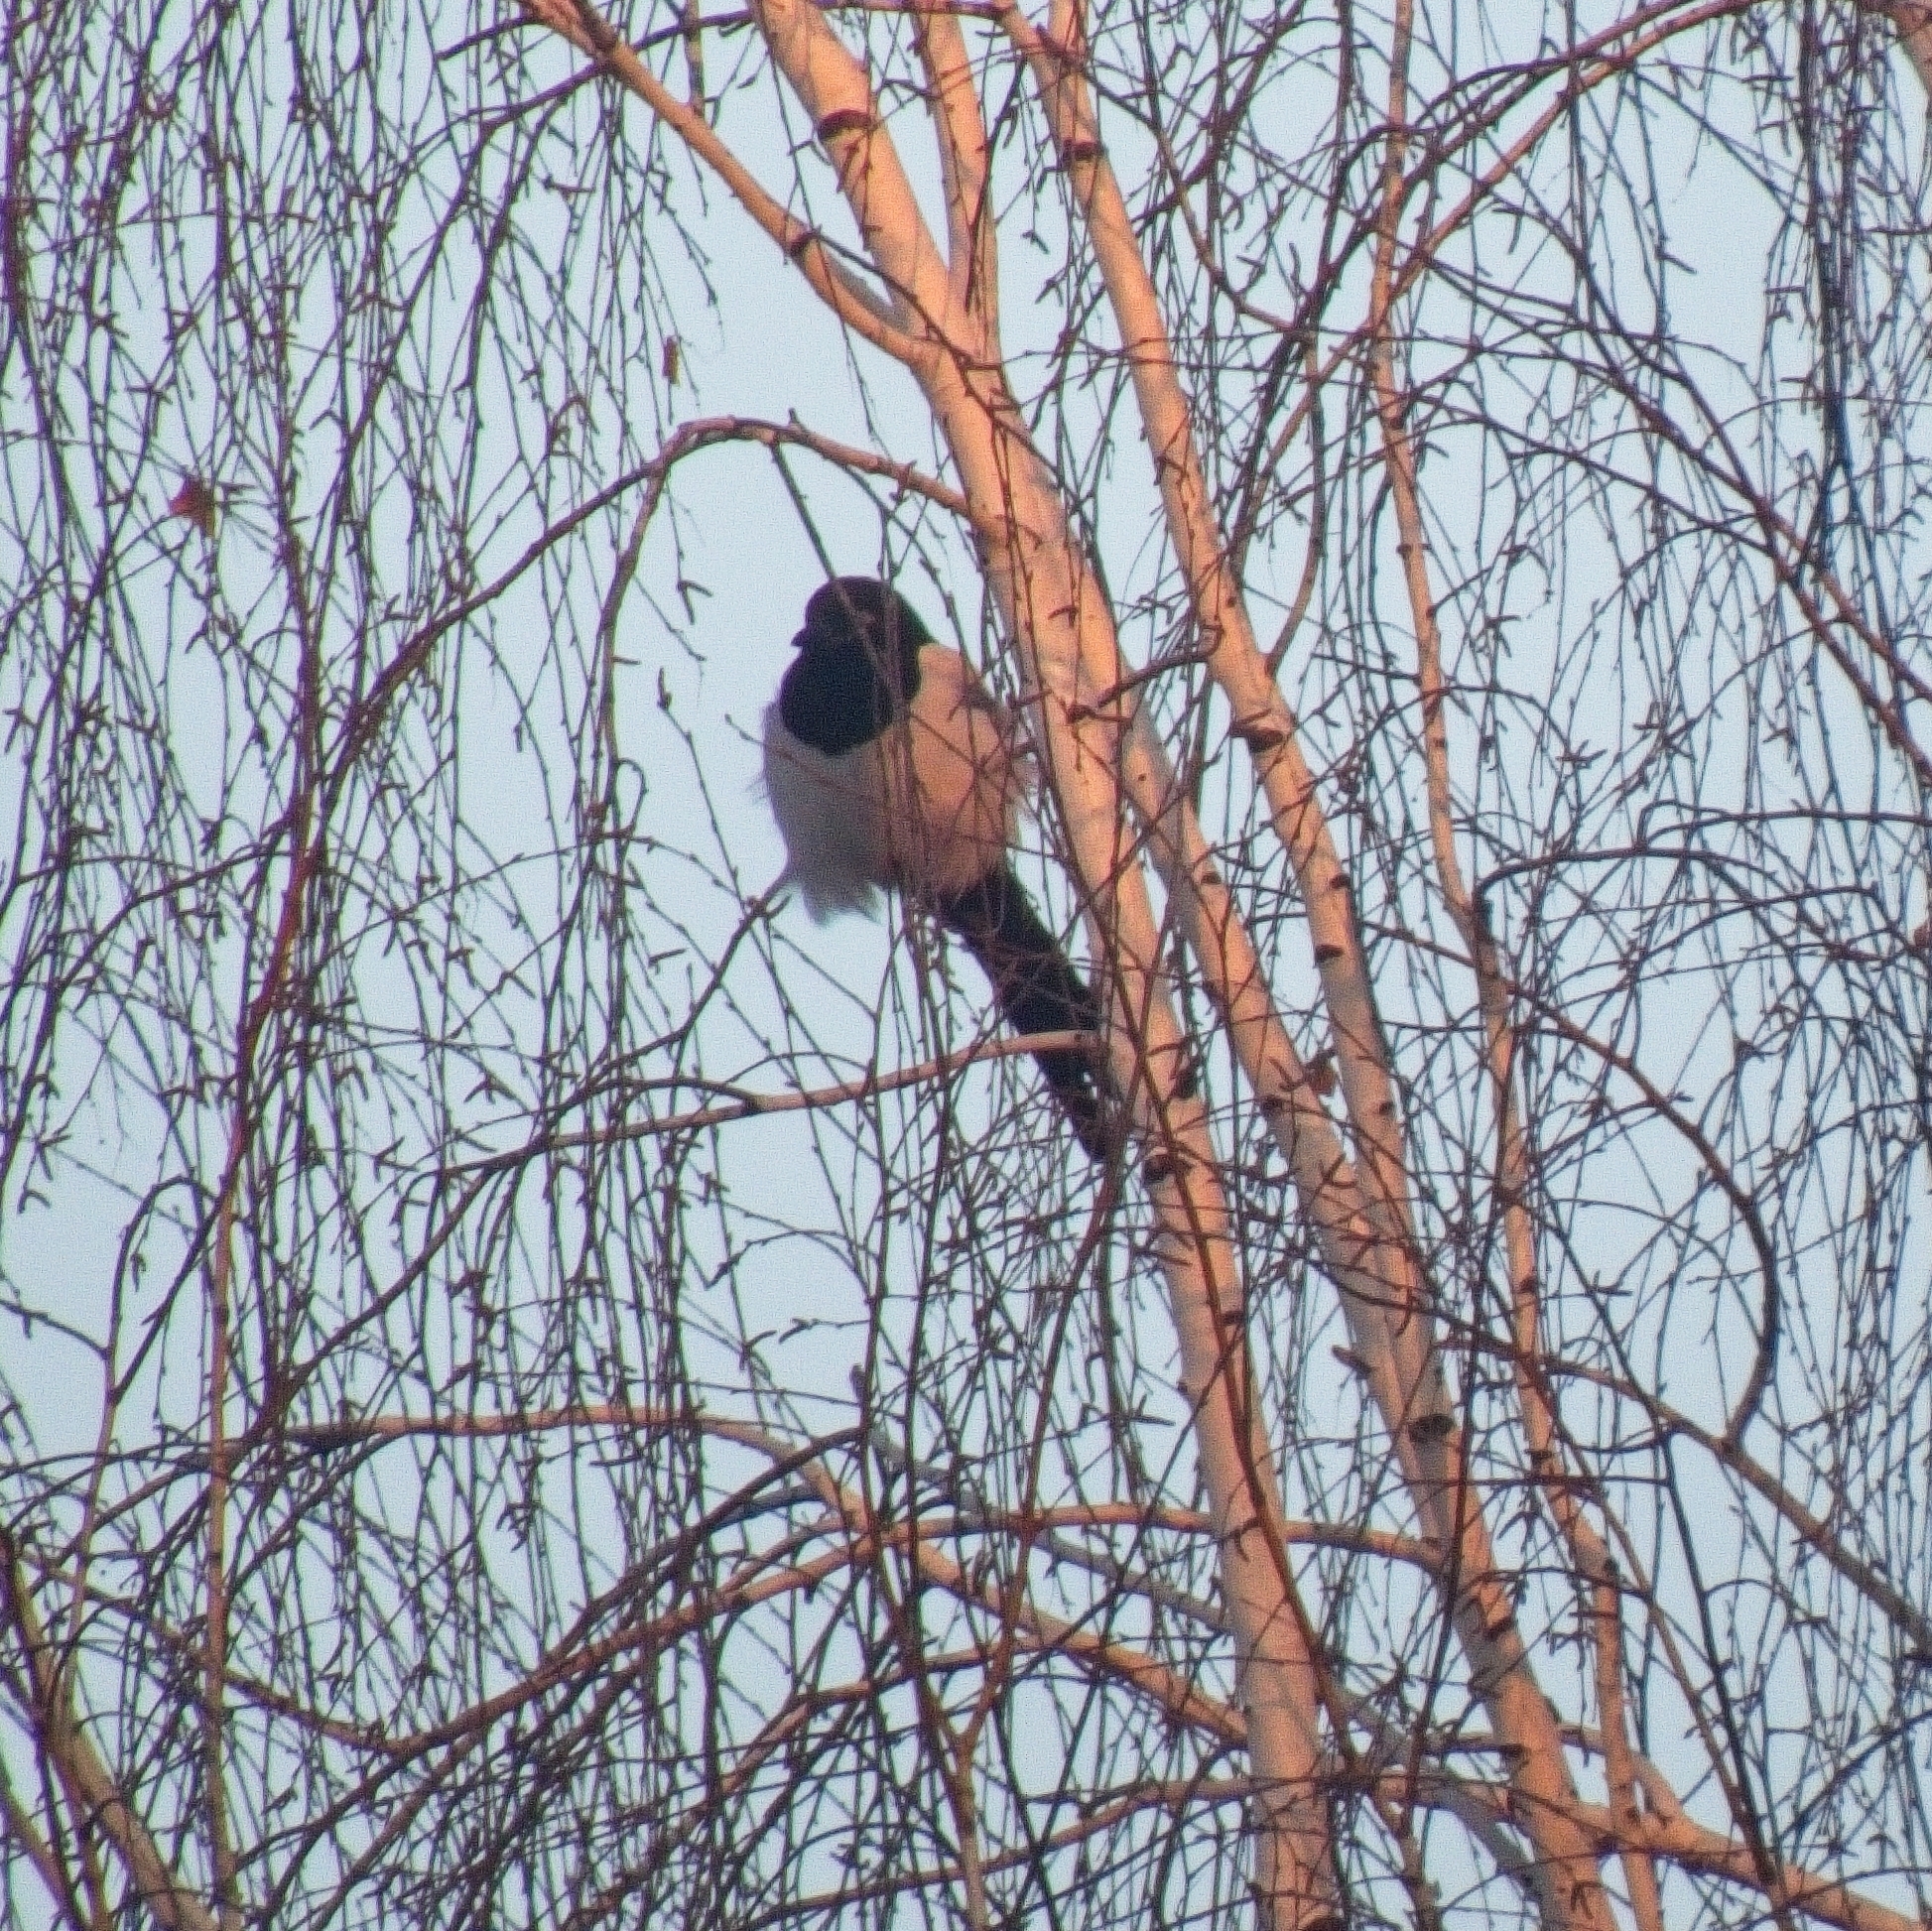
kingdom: Animalia
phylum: Chordata
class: Aves
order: Passeriformes
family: Corvidae
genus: Pica
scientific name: Pica pica
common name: Eurasian magpie
